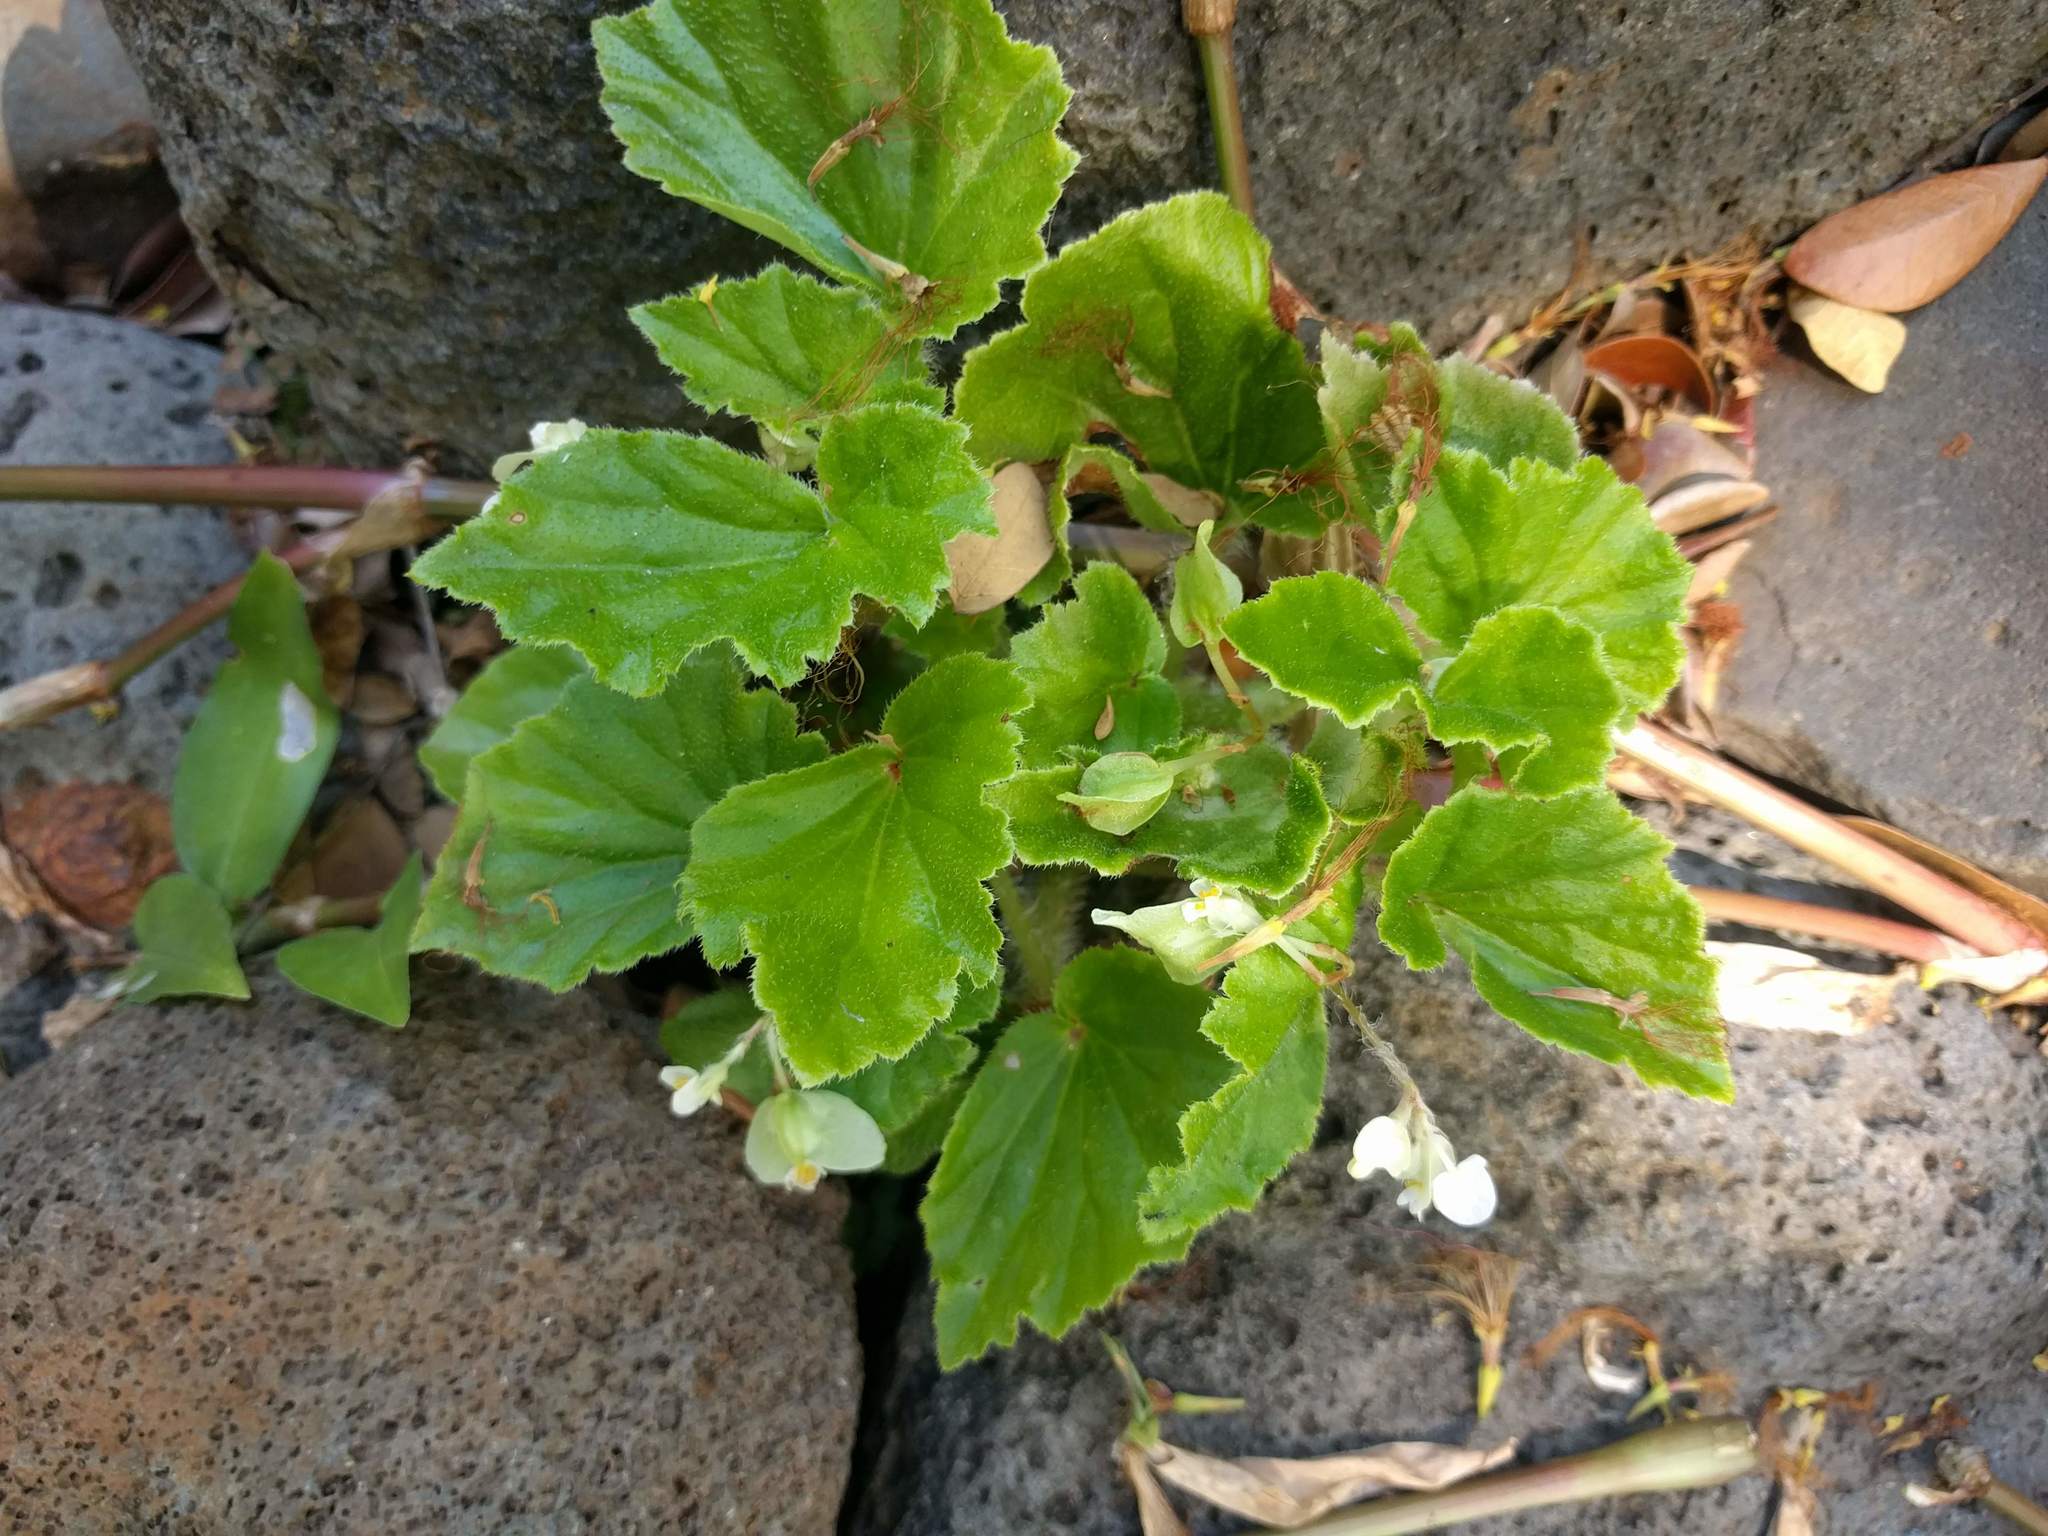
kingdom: Plantae
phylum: Tracheophyta
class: Magnoliopsida
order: Cucurbitales
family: Begoniaceae
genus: Begonia
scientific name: Begonia hirtella
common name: Brazilian begonia
